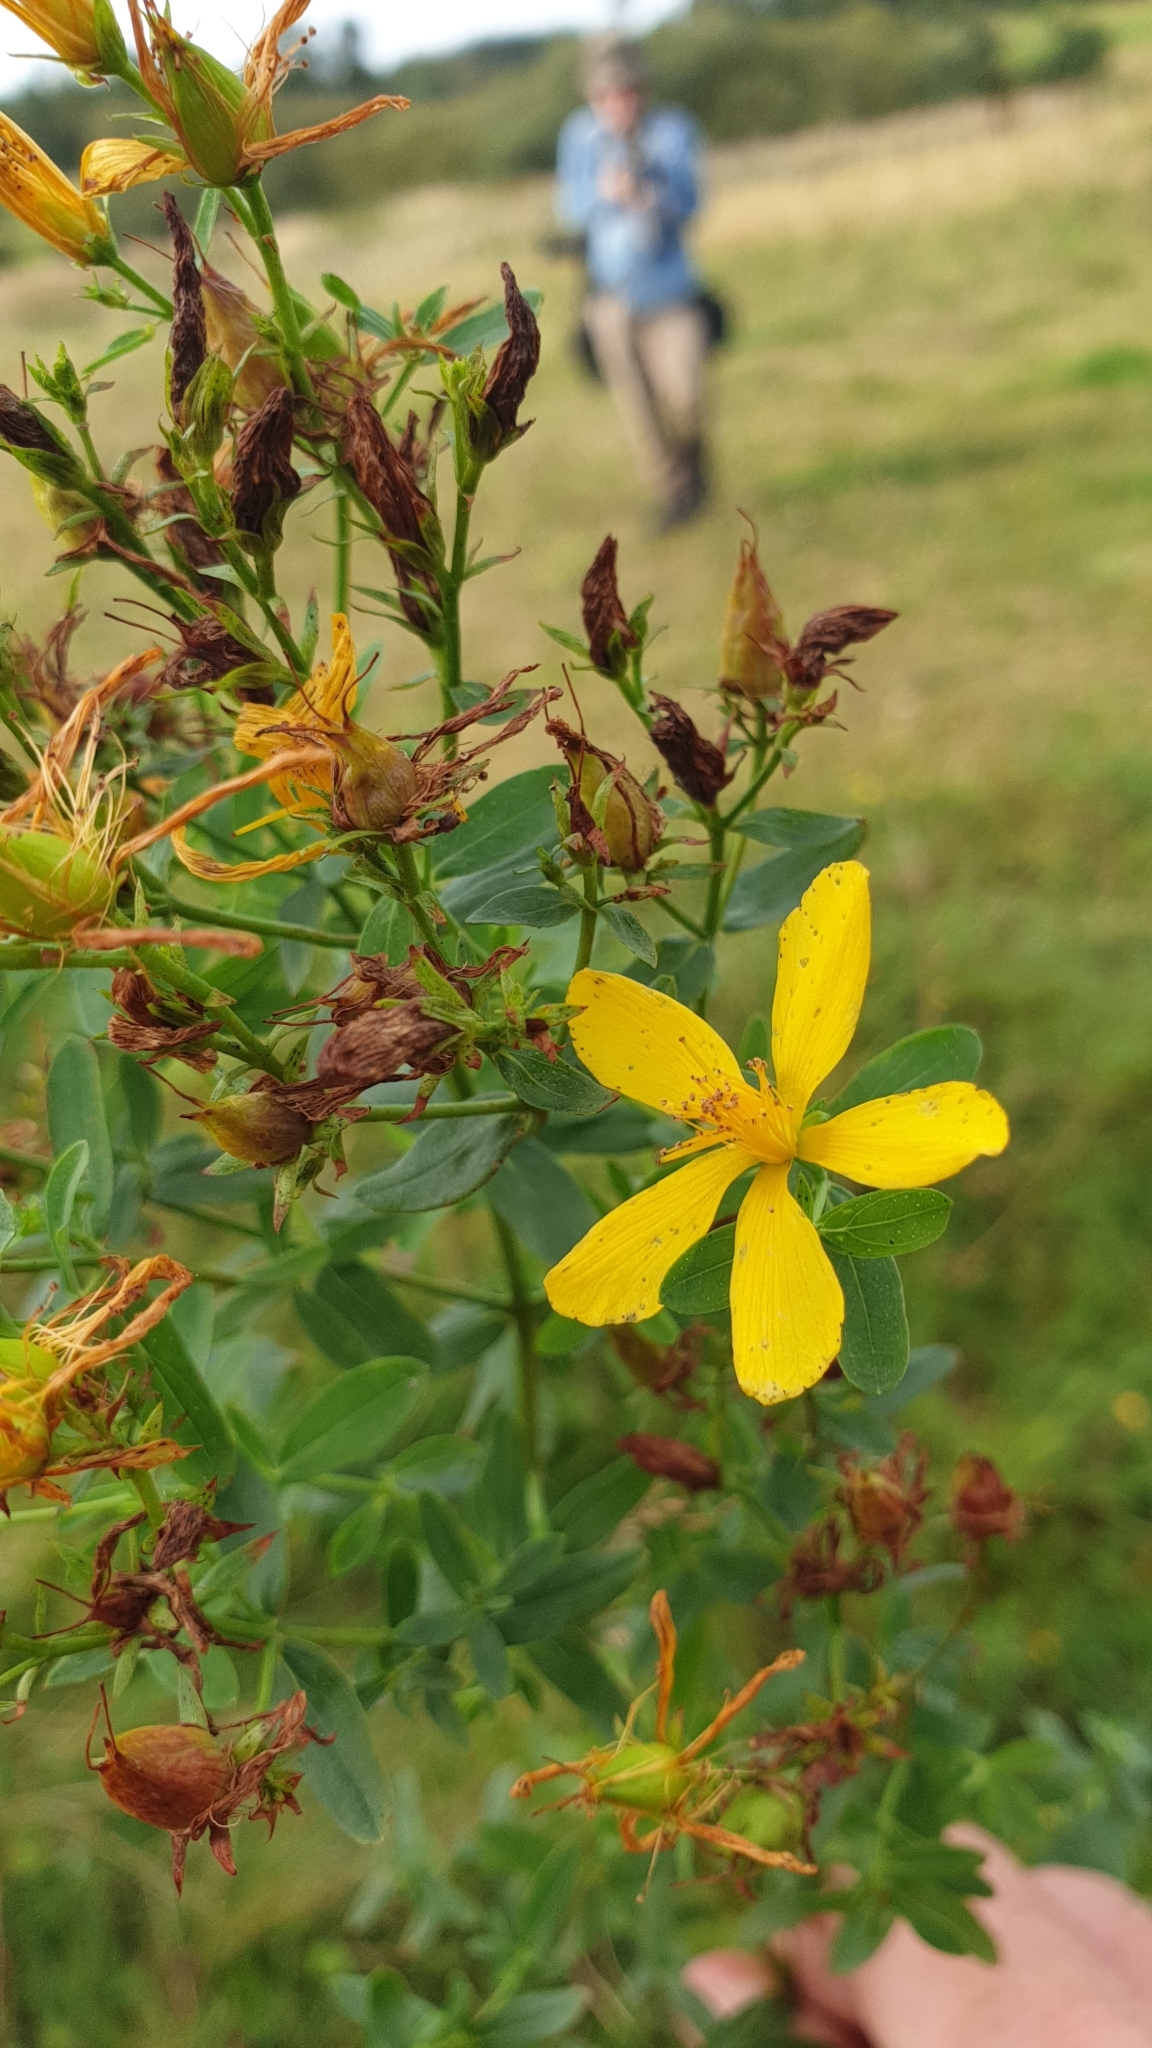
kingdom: Plantae
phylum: Tracheophyta
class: Magnoliopsida
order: Malpighiales
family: Hypericaceae
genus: Hypericum
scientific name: Hypericum perforatum
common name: Common st. johnswort
